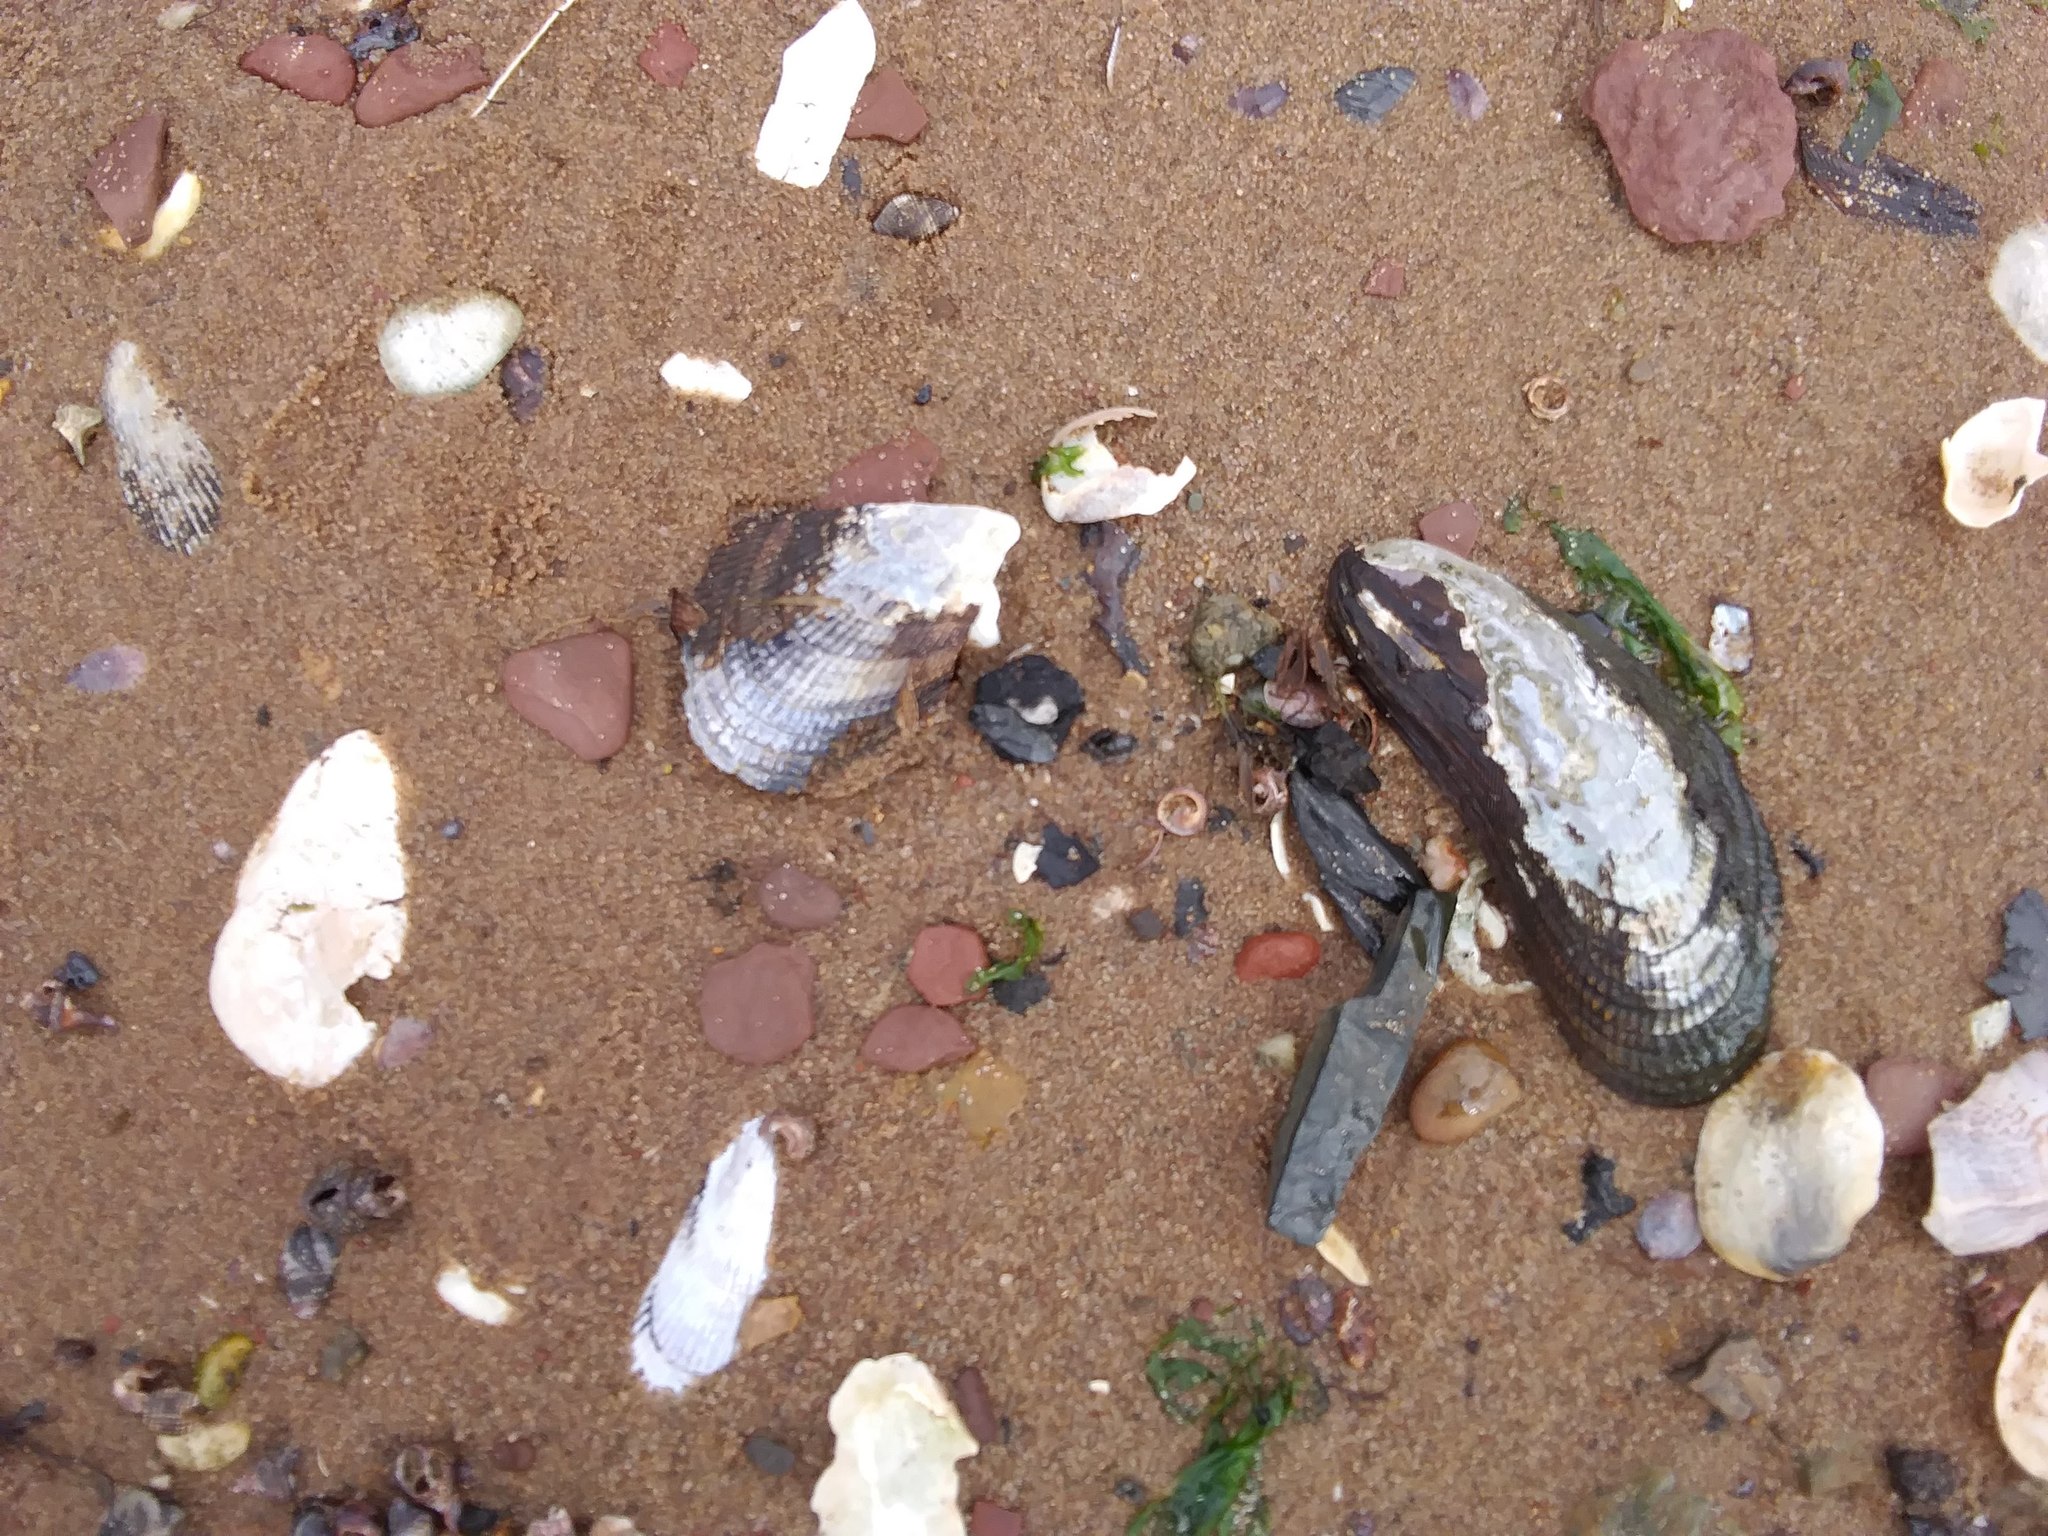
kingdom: Animalia
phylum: Mollusca
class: Bivalvia
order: Mytilida
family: Mytilidae
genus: Geukensia
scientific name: Geukensia demissa
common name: Ribbed mussel
